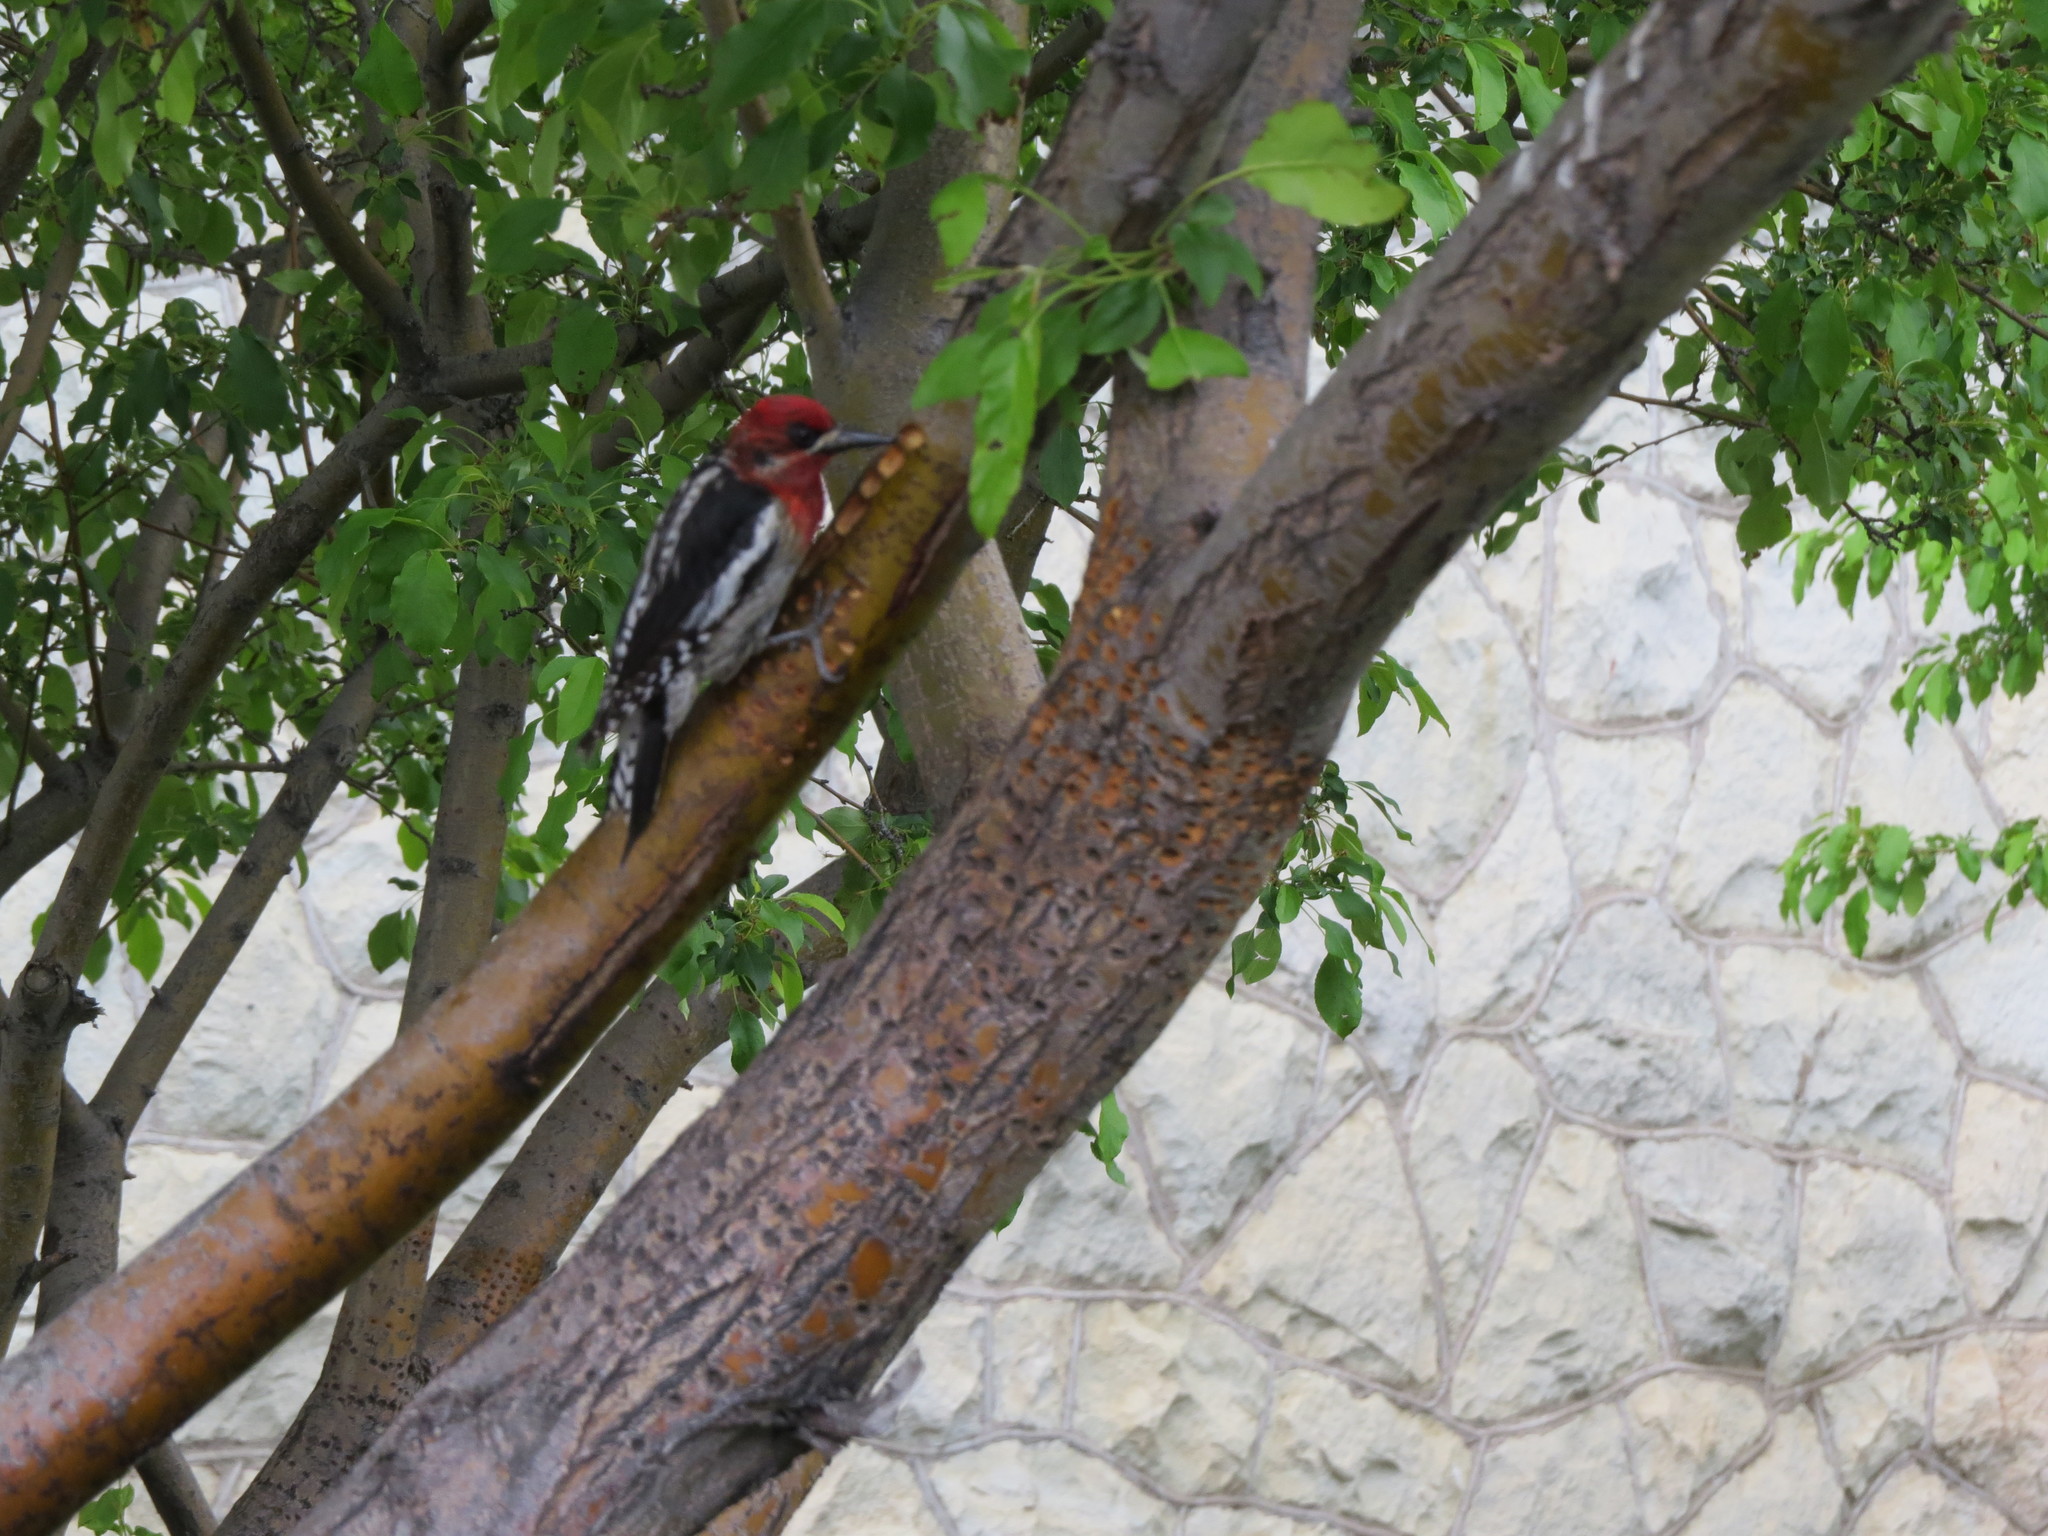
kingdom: Animalia
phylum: Chordata
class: Aves
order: Piciformes
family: Picidae
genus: Sphyrapicus
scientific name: Sphyrapicus ruber
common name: Red-breasted sapsucker
